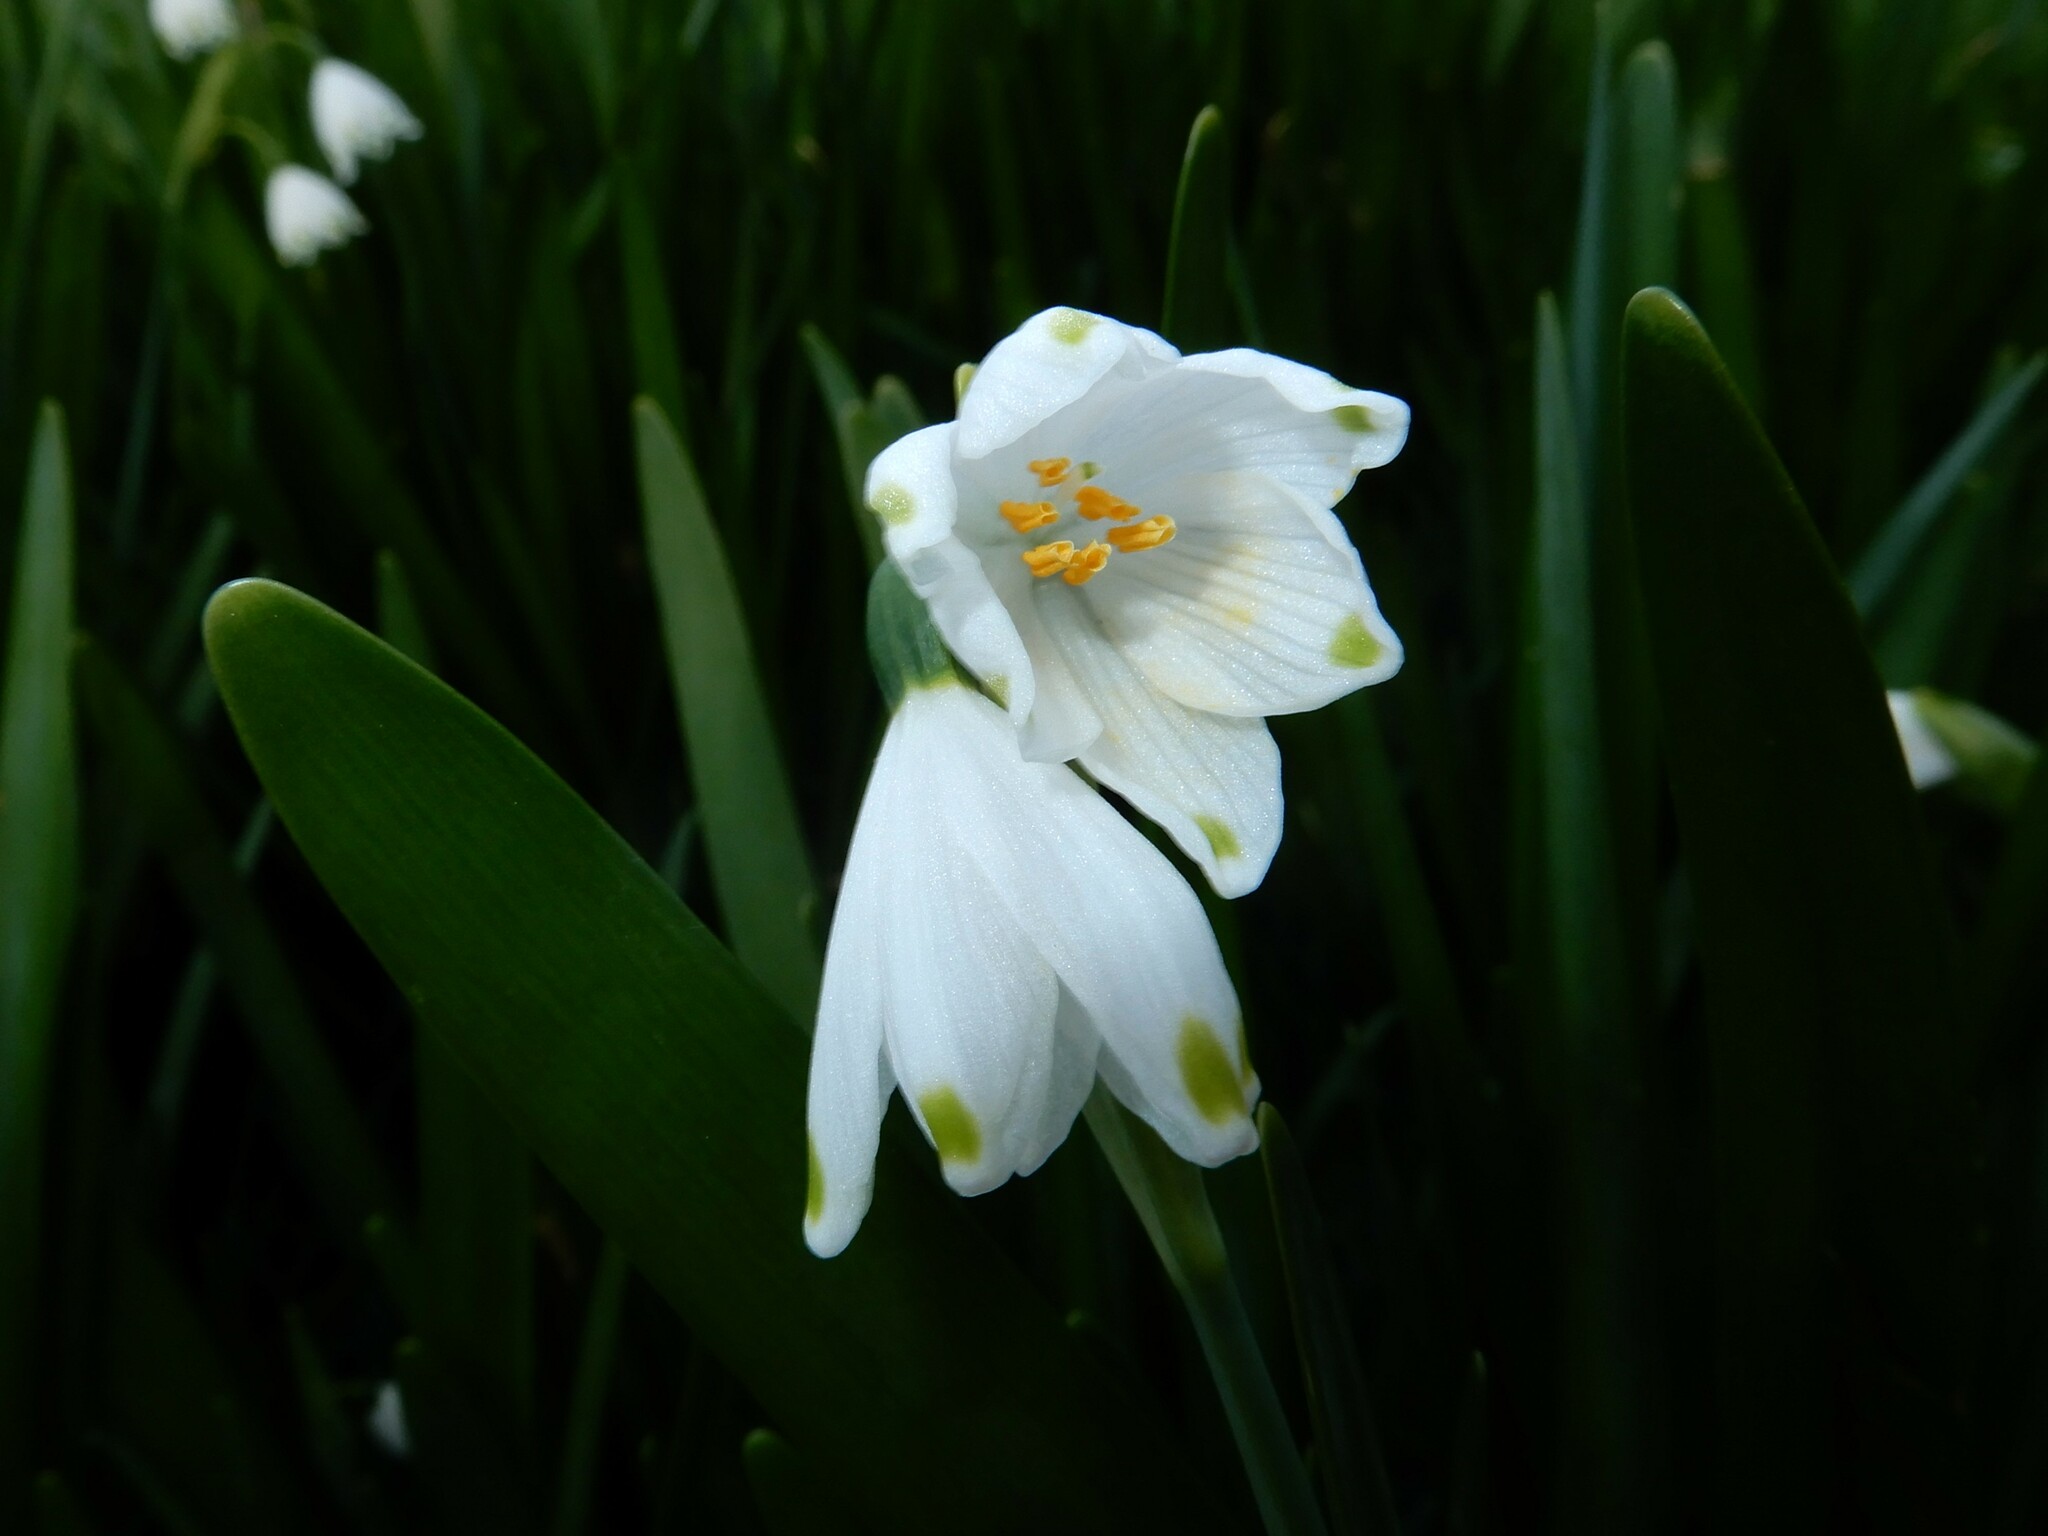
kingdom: Plantae
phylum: Tracheophyta
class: Liliopsida
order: Asparagales
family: Amaryllidaceae
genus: Leucojum
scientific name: Leucojum aestivum
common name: Summer snowflake
